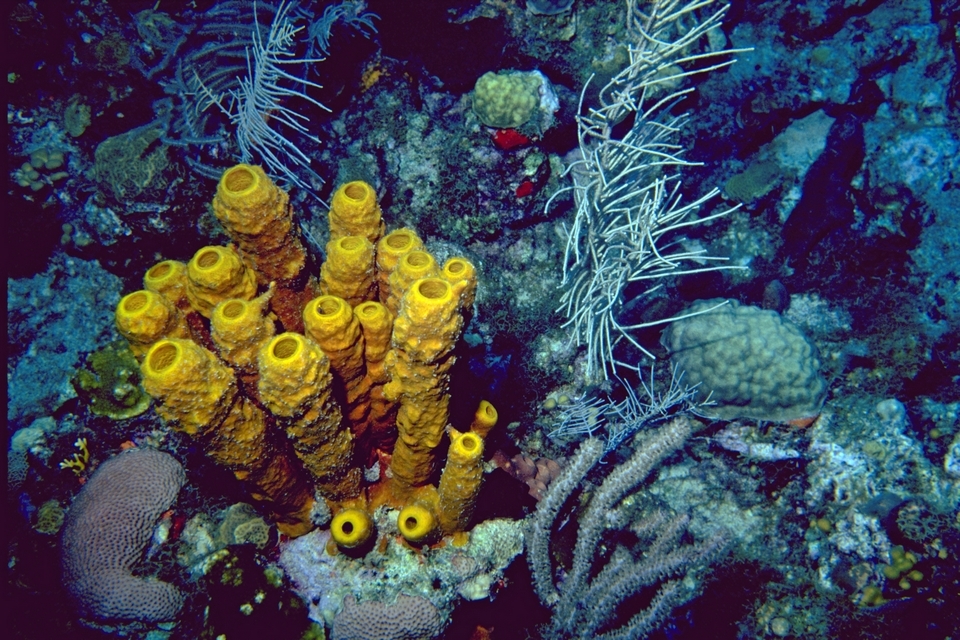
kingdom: Animalia
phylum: Porifera
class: Demospongiae
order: Verongiida
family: Aplysinidae
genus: Aplysina
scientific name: Aplysina fistularis
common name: Candle sponge
